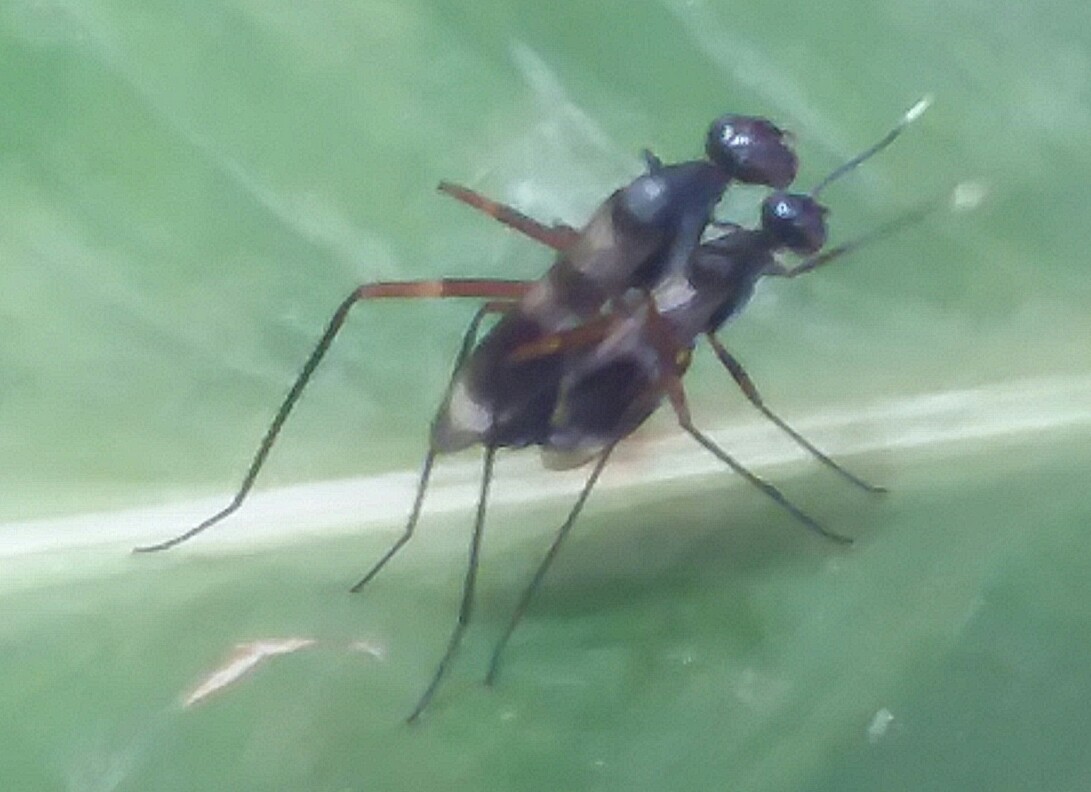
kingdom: Animalia
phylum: Arthropoda
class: Insecta
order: Diptera
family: Micropezidae
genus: Taeniaptera
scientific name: Taeniaptera trivittata
